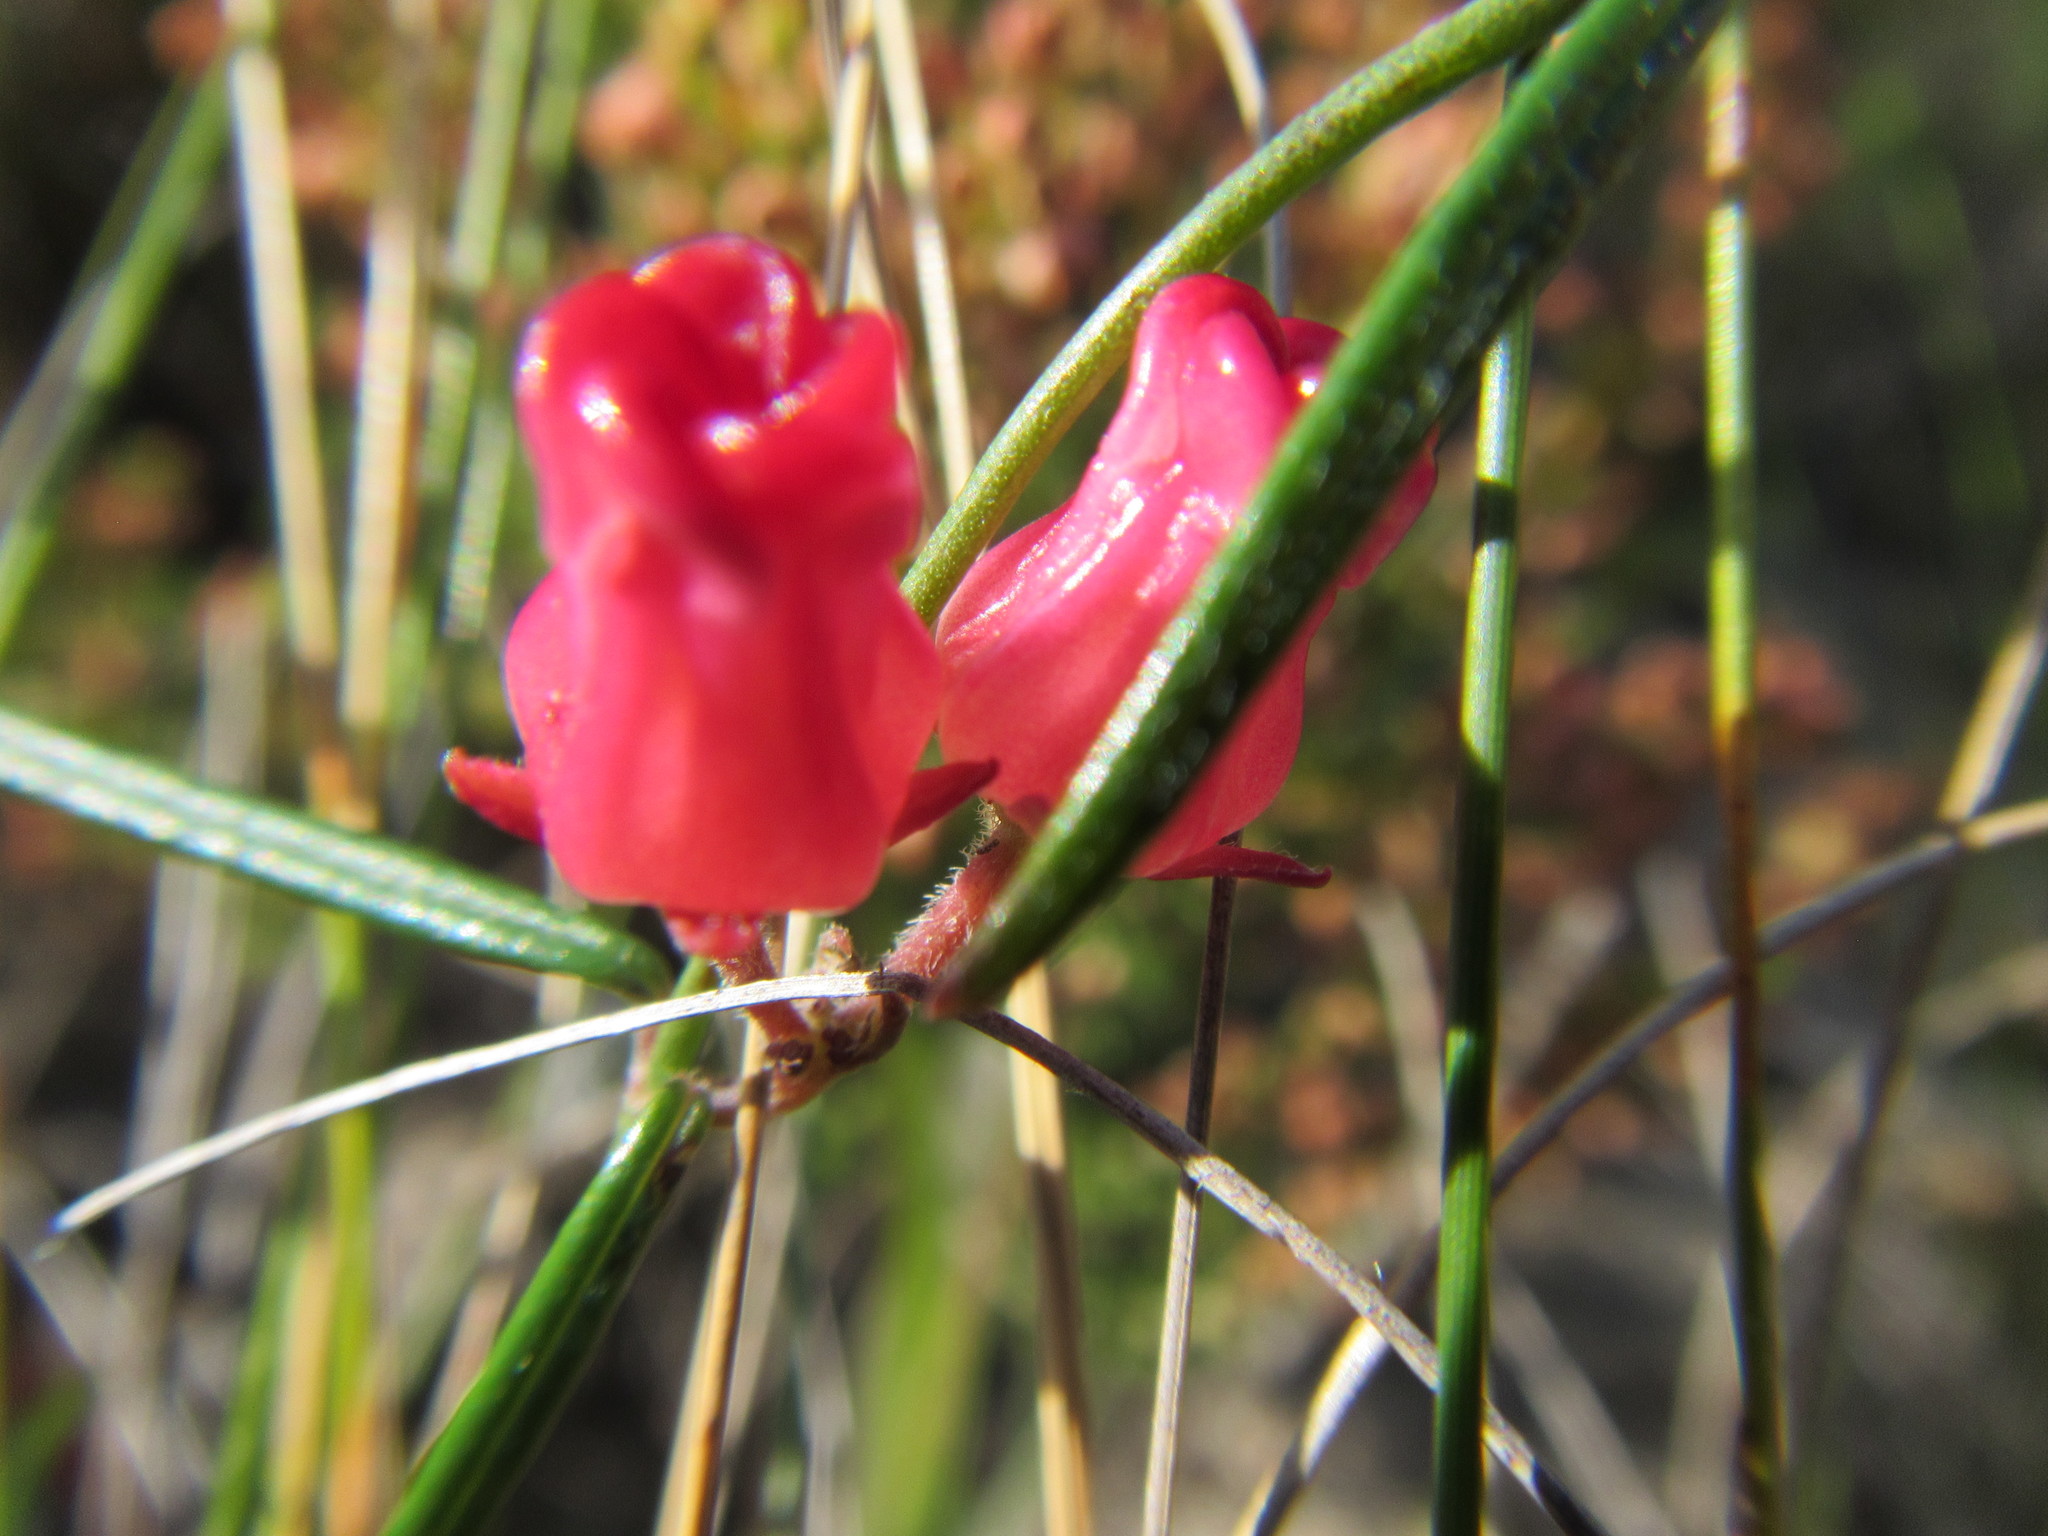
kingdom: Plantae
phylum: Tracheophyta
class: Magnoliopsida
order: Gentianales
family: Apocynaceae
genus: Microloma
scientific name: Microloma tenuifolium
